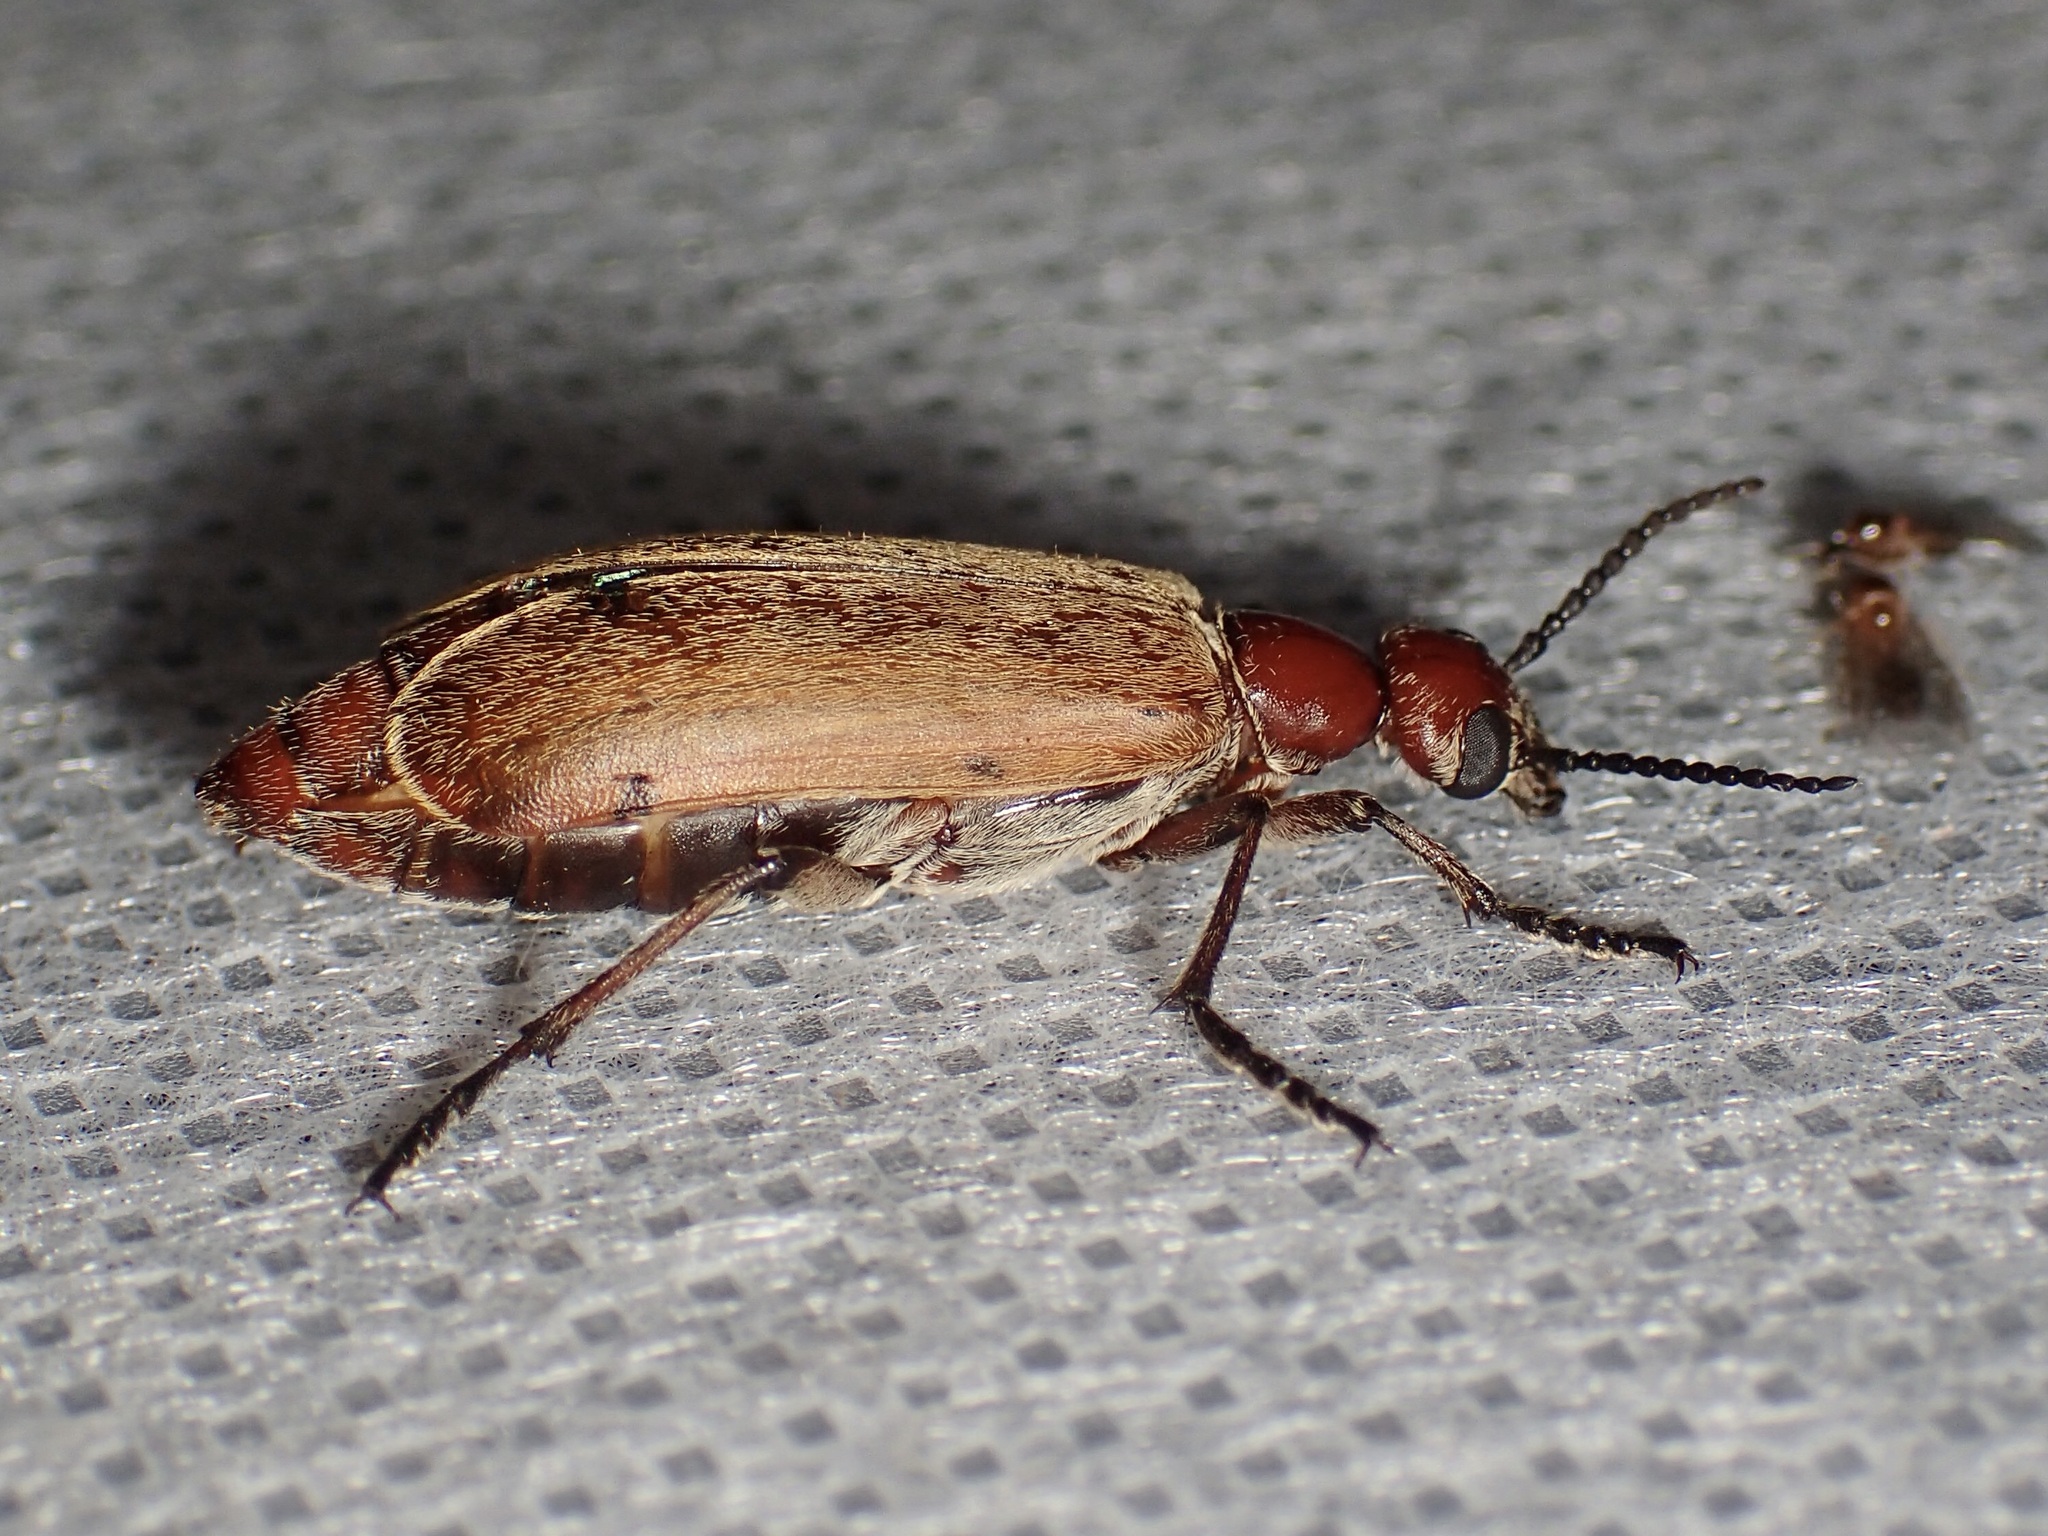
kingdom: Animalia
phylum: Arthropoda
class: Insecta
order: Coleoptera
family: Meloidae
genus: Epicauta
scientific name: Epicauta ochrea
